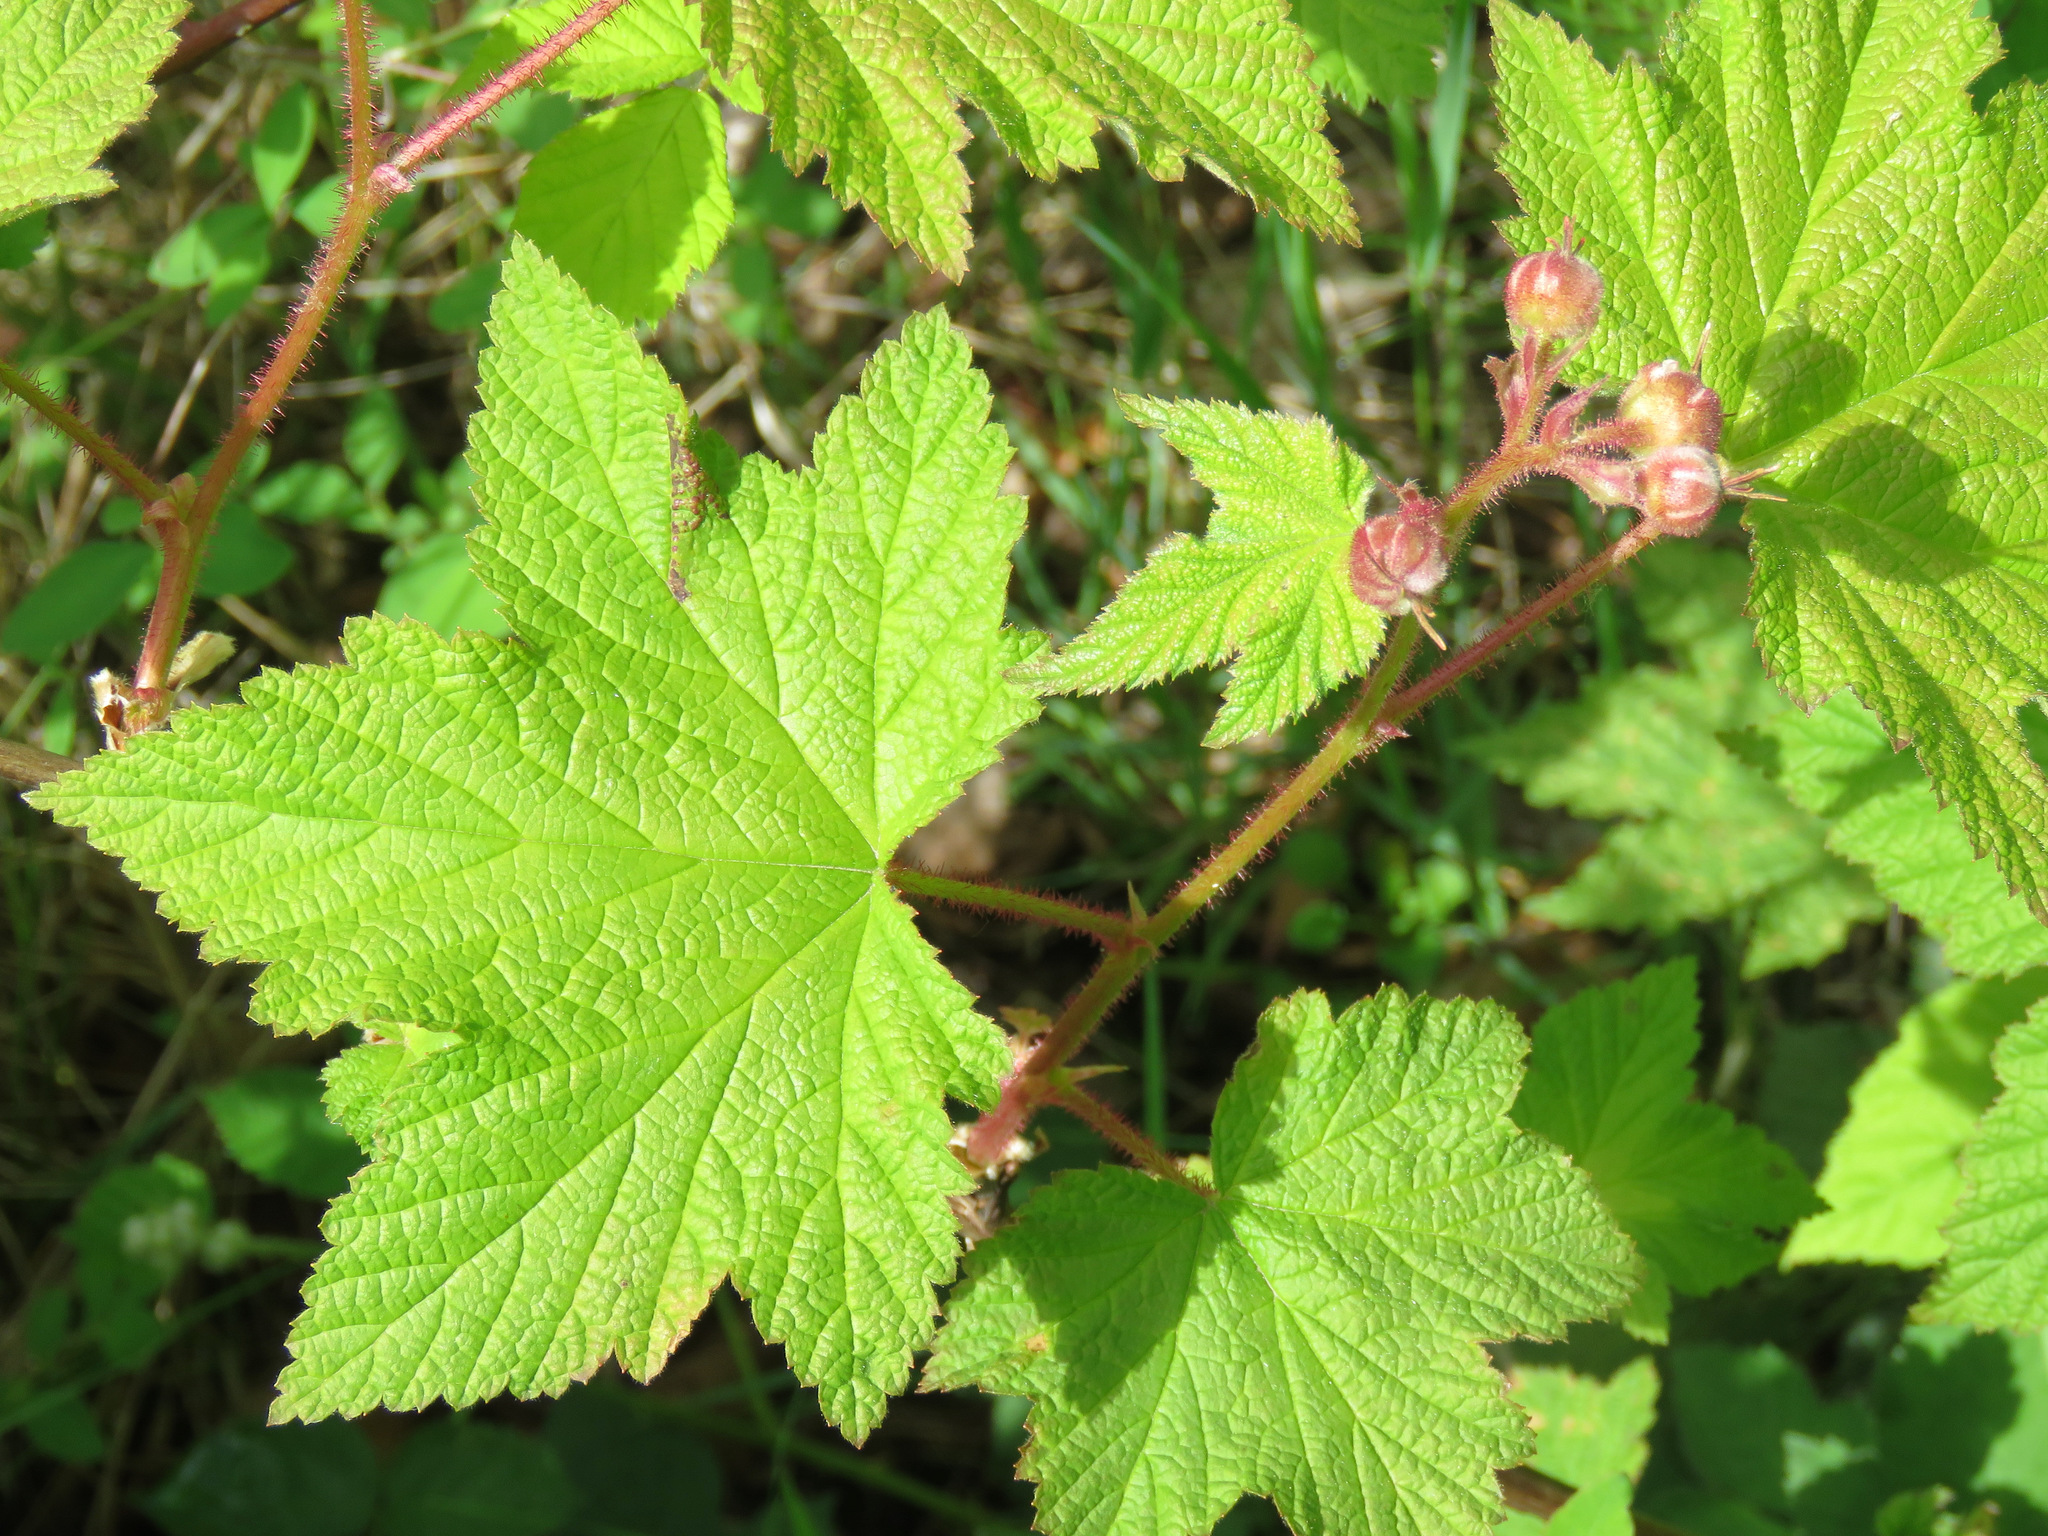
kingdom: Plantae
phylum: Tracheophyta
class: Magnoliopsida
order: Rosales
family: Rosaceae
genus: Rubus
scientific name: Rubus parviflorus
